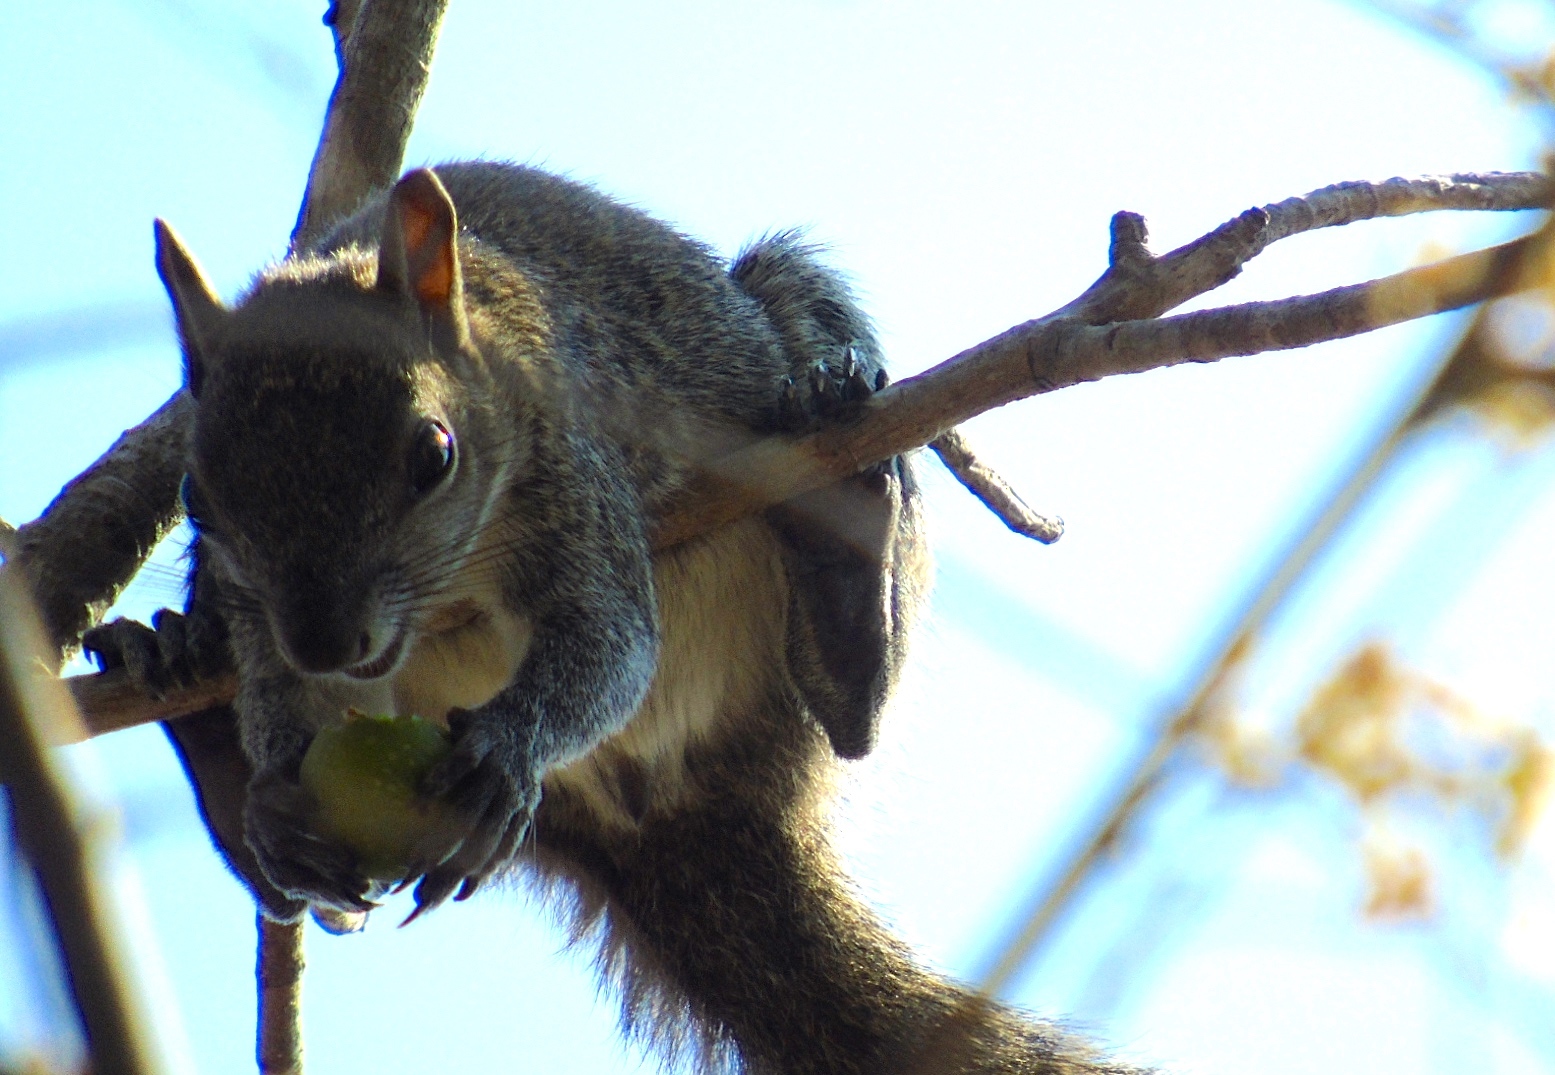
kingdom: Animalia
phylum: Chordata
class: Mammalia
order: Rodentia
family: Sciuridae
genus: Sciurus
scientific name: Sciurus colliaei
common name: Collie's squirrel
